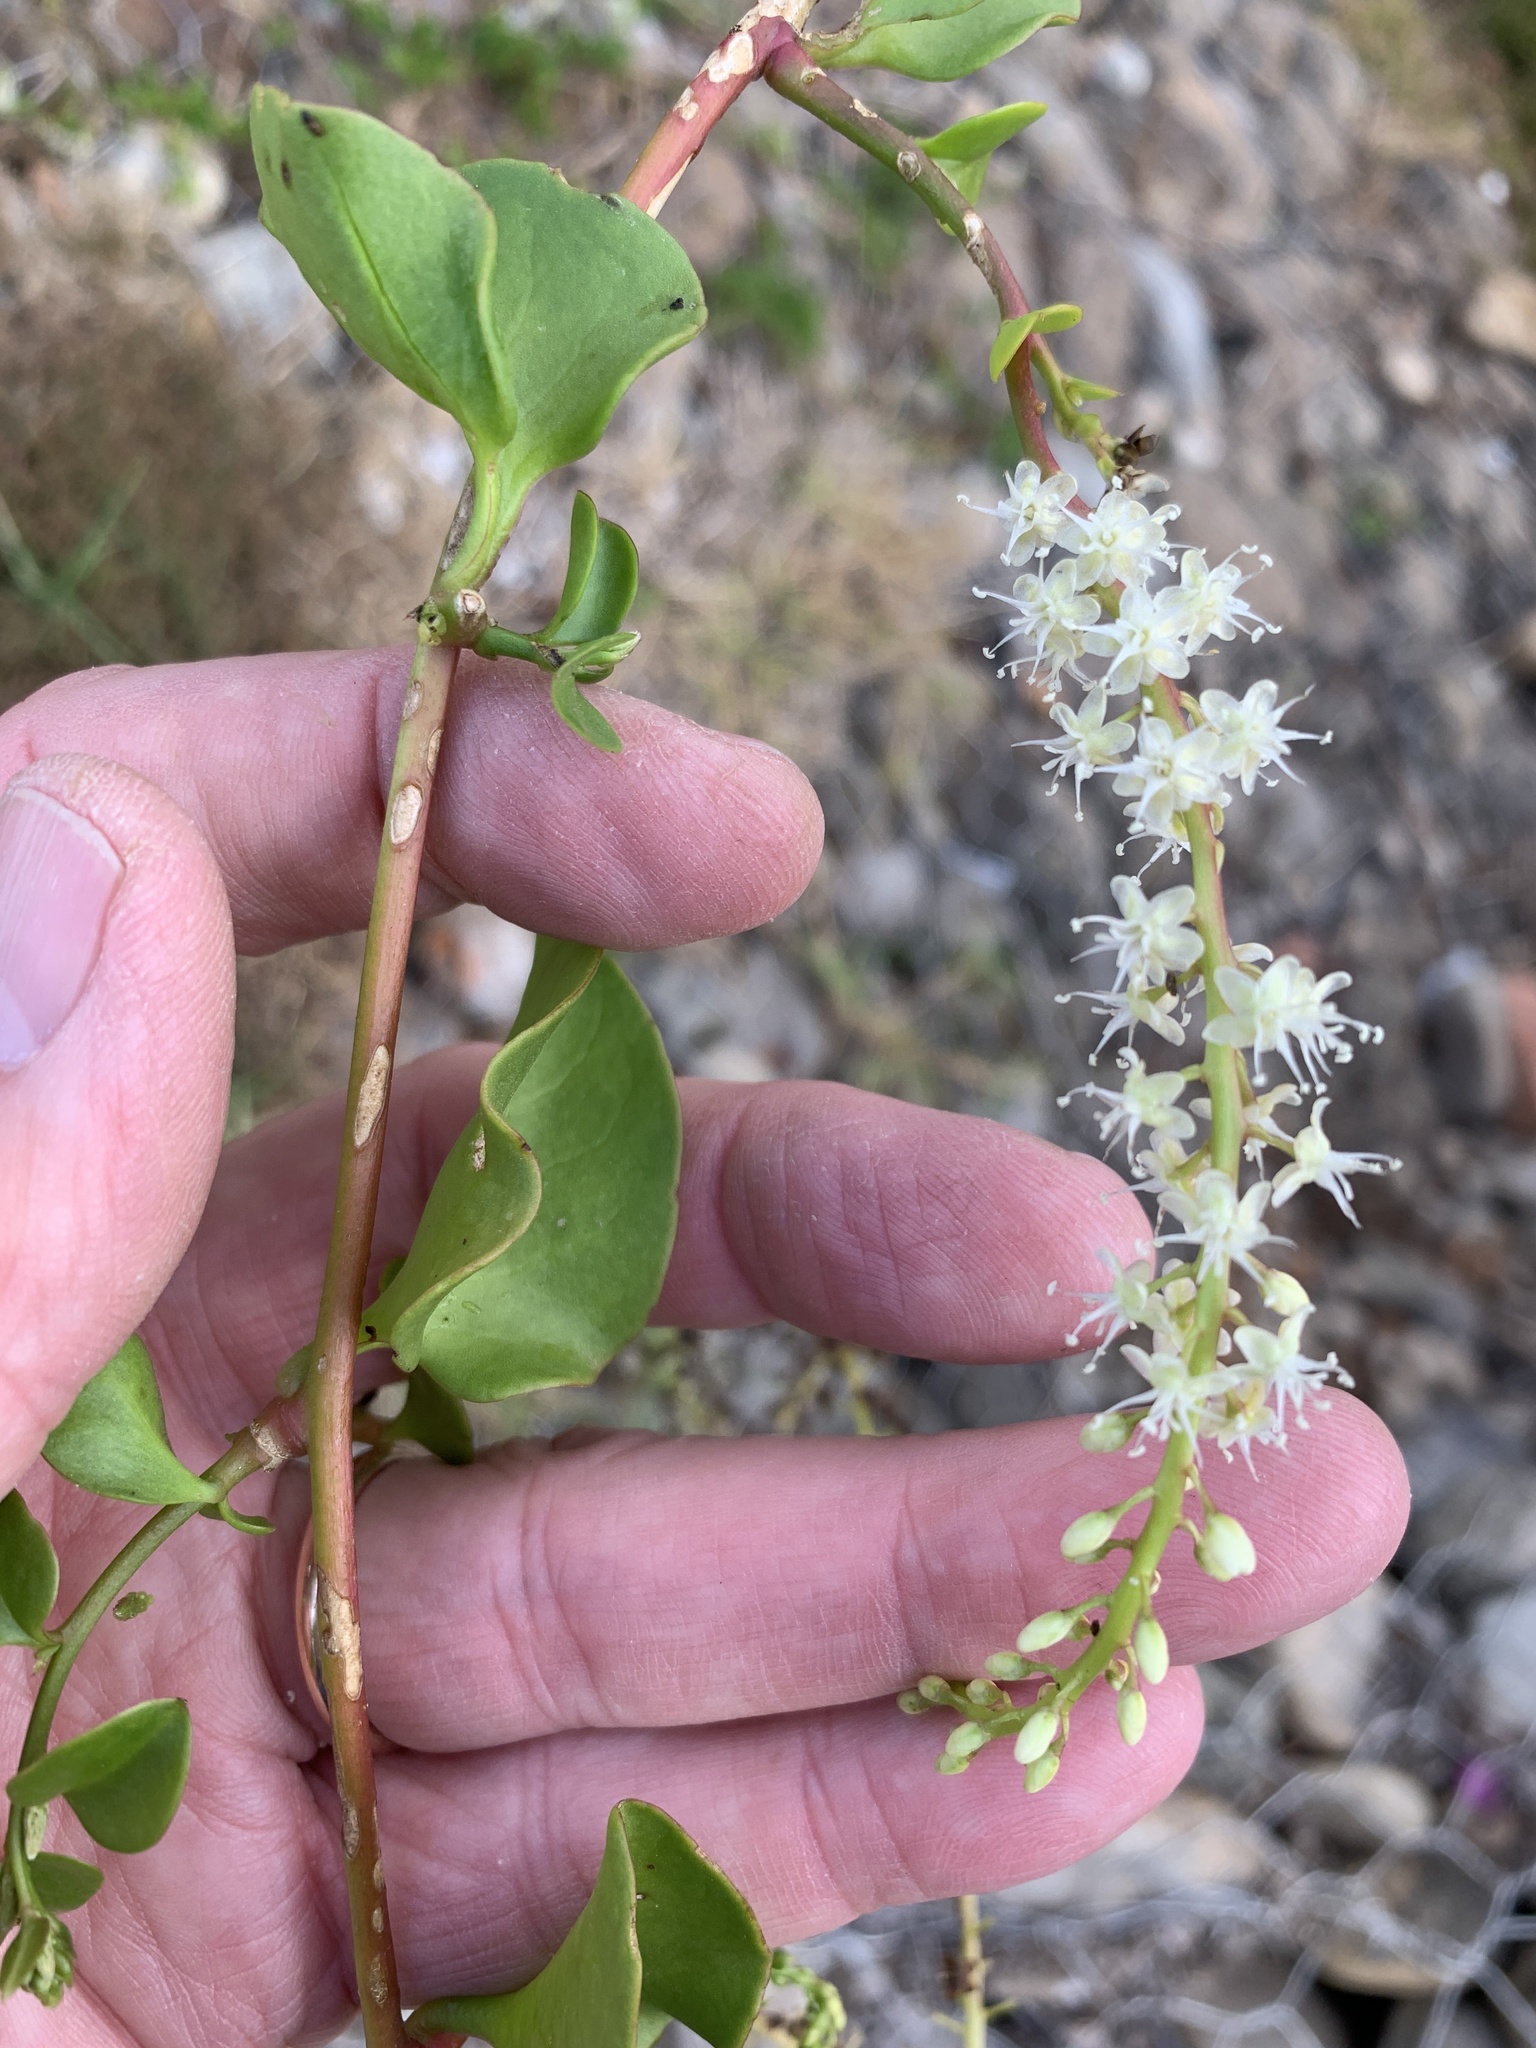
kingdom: Plantae
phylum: Tracheophyta
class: Magnoliopsida
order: Caryophyllales
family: Basellaceae
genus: Anredera
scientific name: Anredera cordifolia
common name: Heartleaf madeiravine
